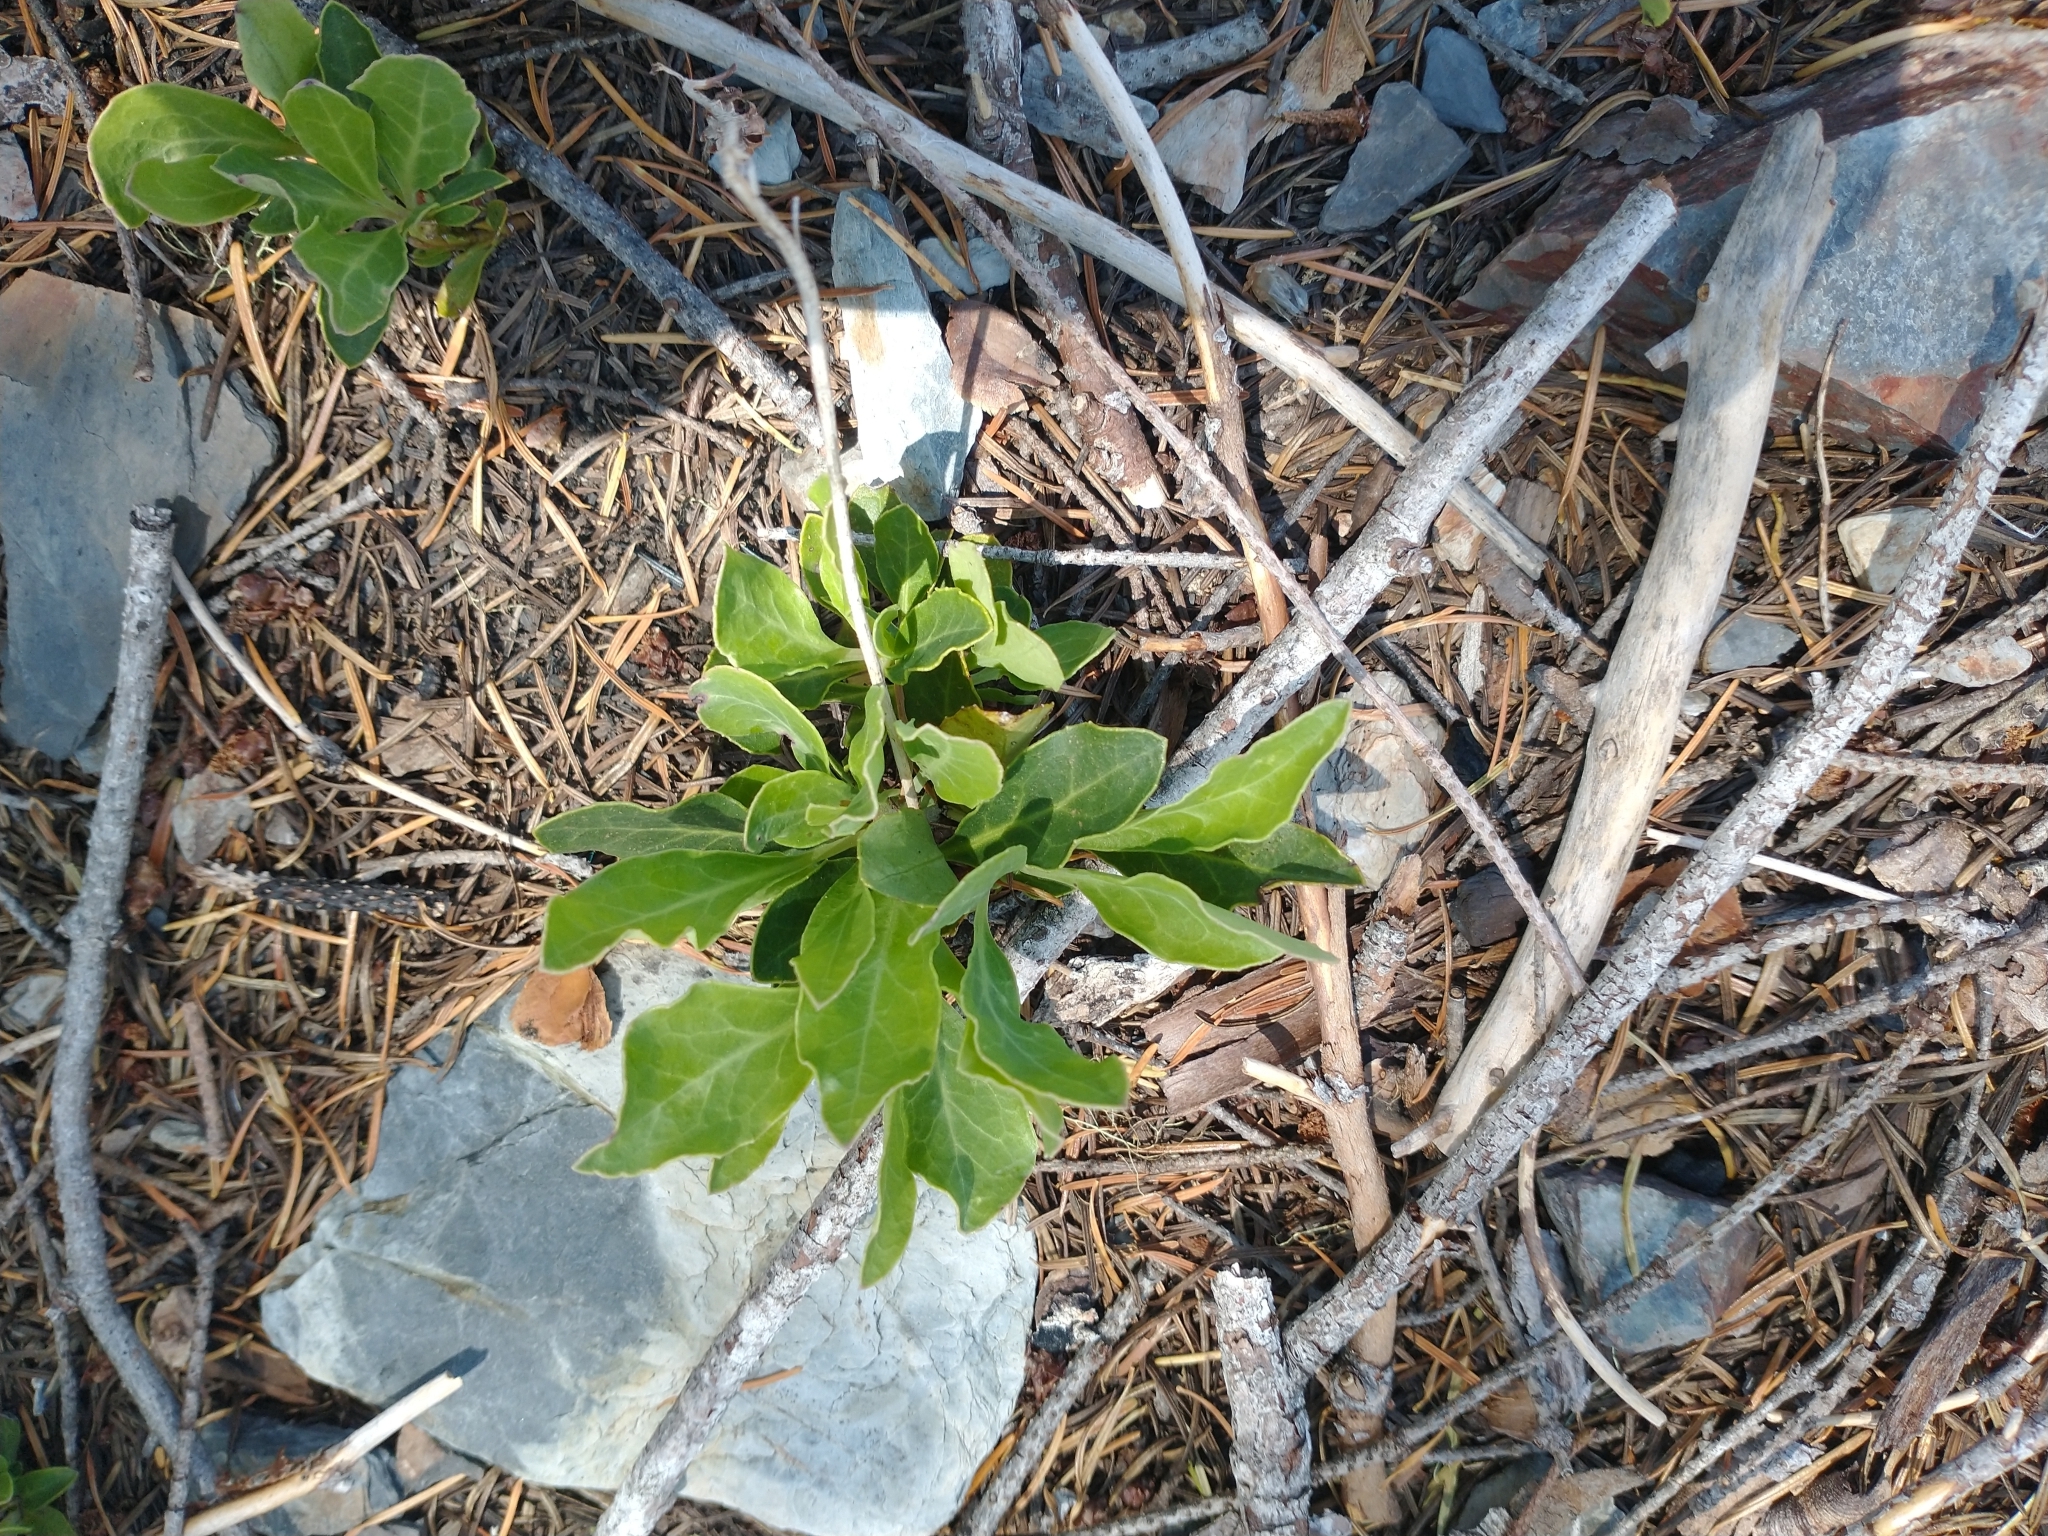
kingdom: Plantae
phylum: Tracheophyta
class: Magnoliopsida
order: Ericales
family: Ericaceae
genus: Pyrola
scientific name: Pyrola dentata
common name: Tooth-leaved wintergreen
